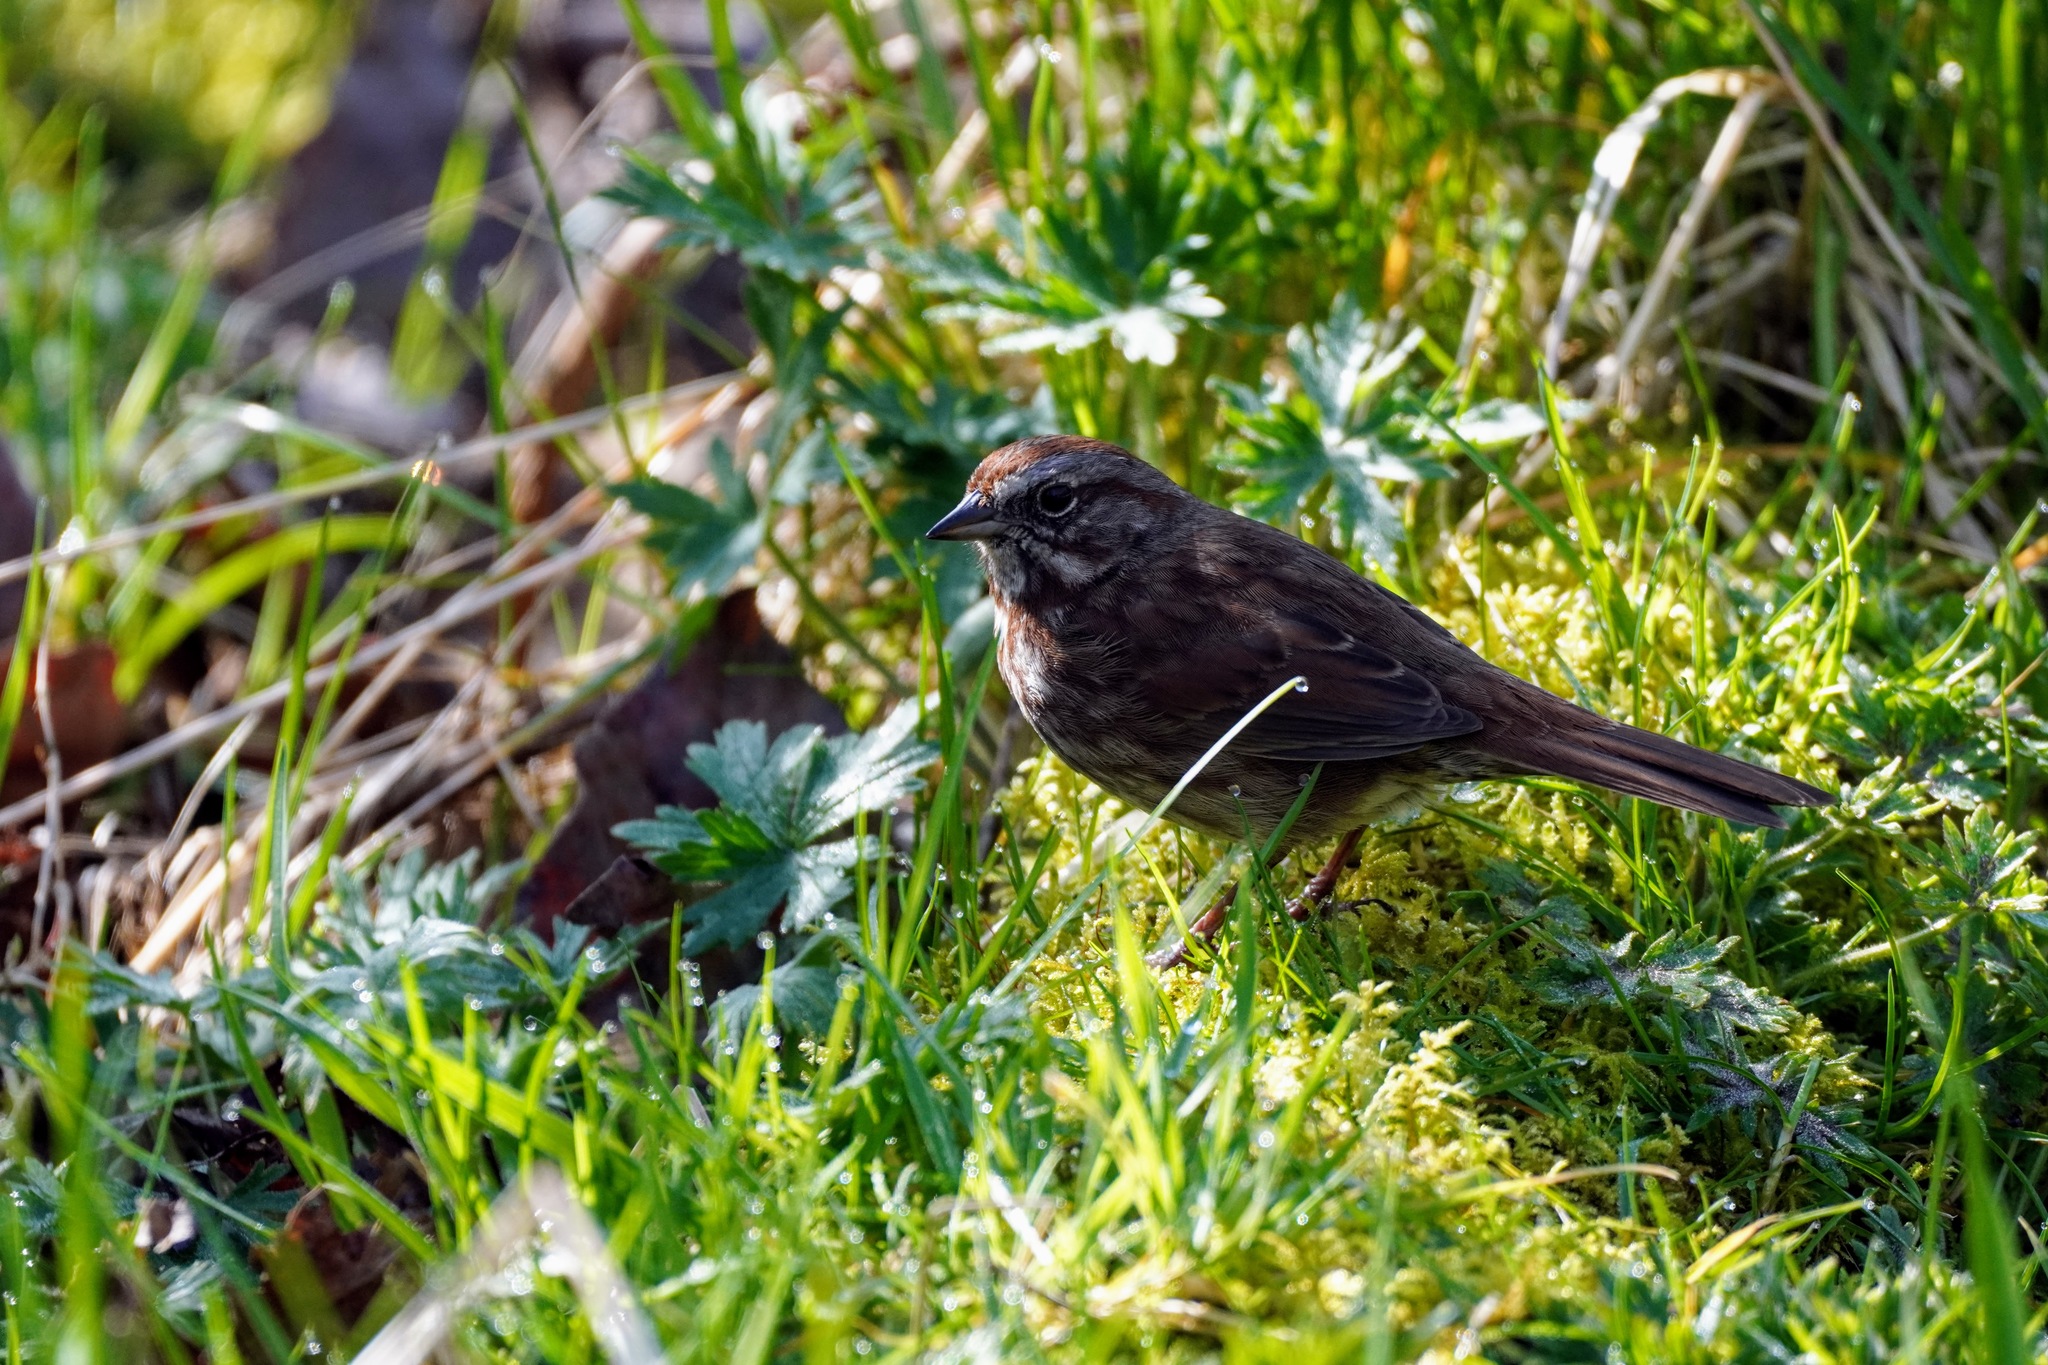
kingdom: Animalia
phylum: Chordata
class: Aves
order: Passeriformes
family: Passerellidae
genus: Melospiza
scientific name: Melospiza melodia
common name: Song sparrow
